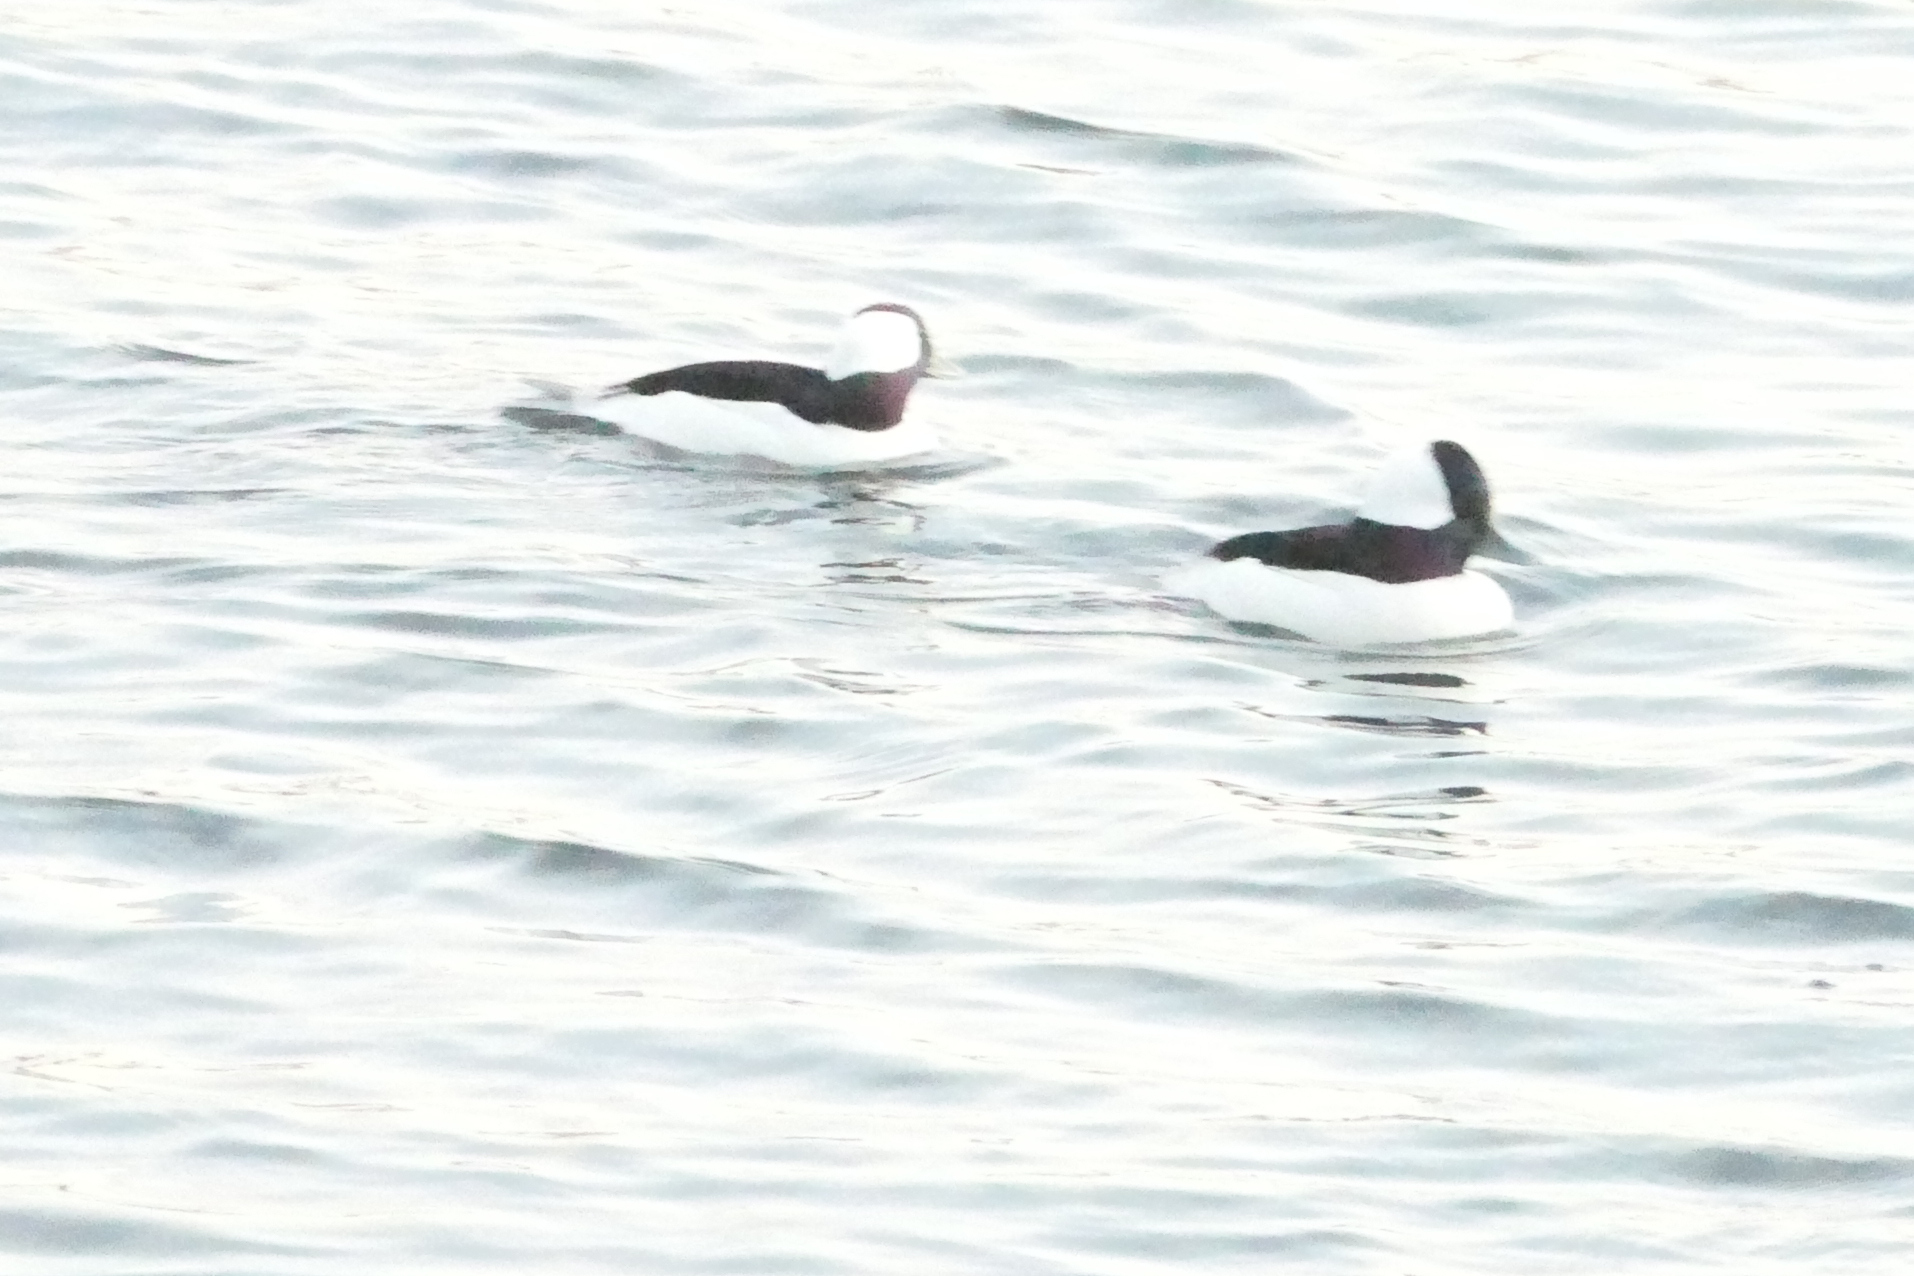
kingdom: Animalia
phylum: Chordata
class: Aves
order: Anseriformes
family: Anatidae
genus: Bucephala
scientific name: Bucephala albeola
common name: Bufflehead
